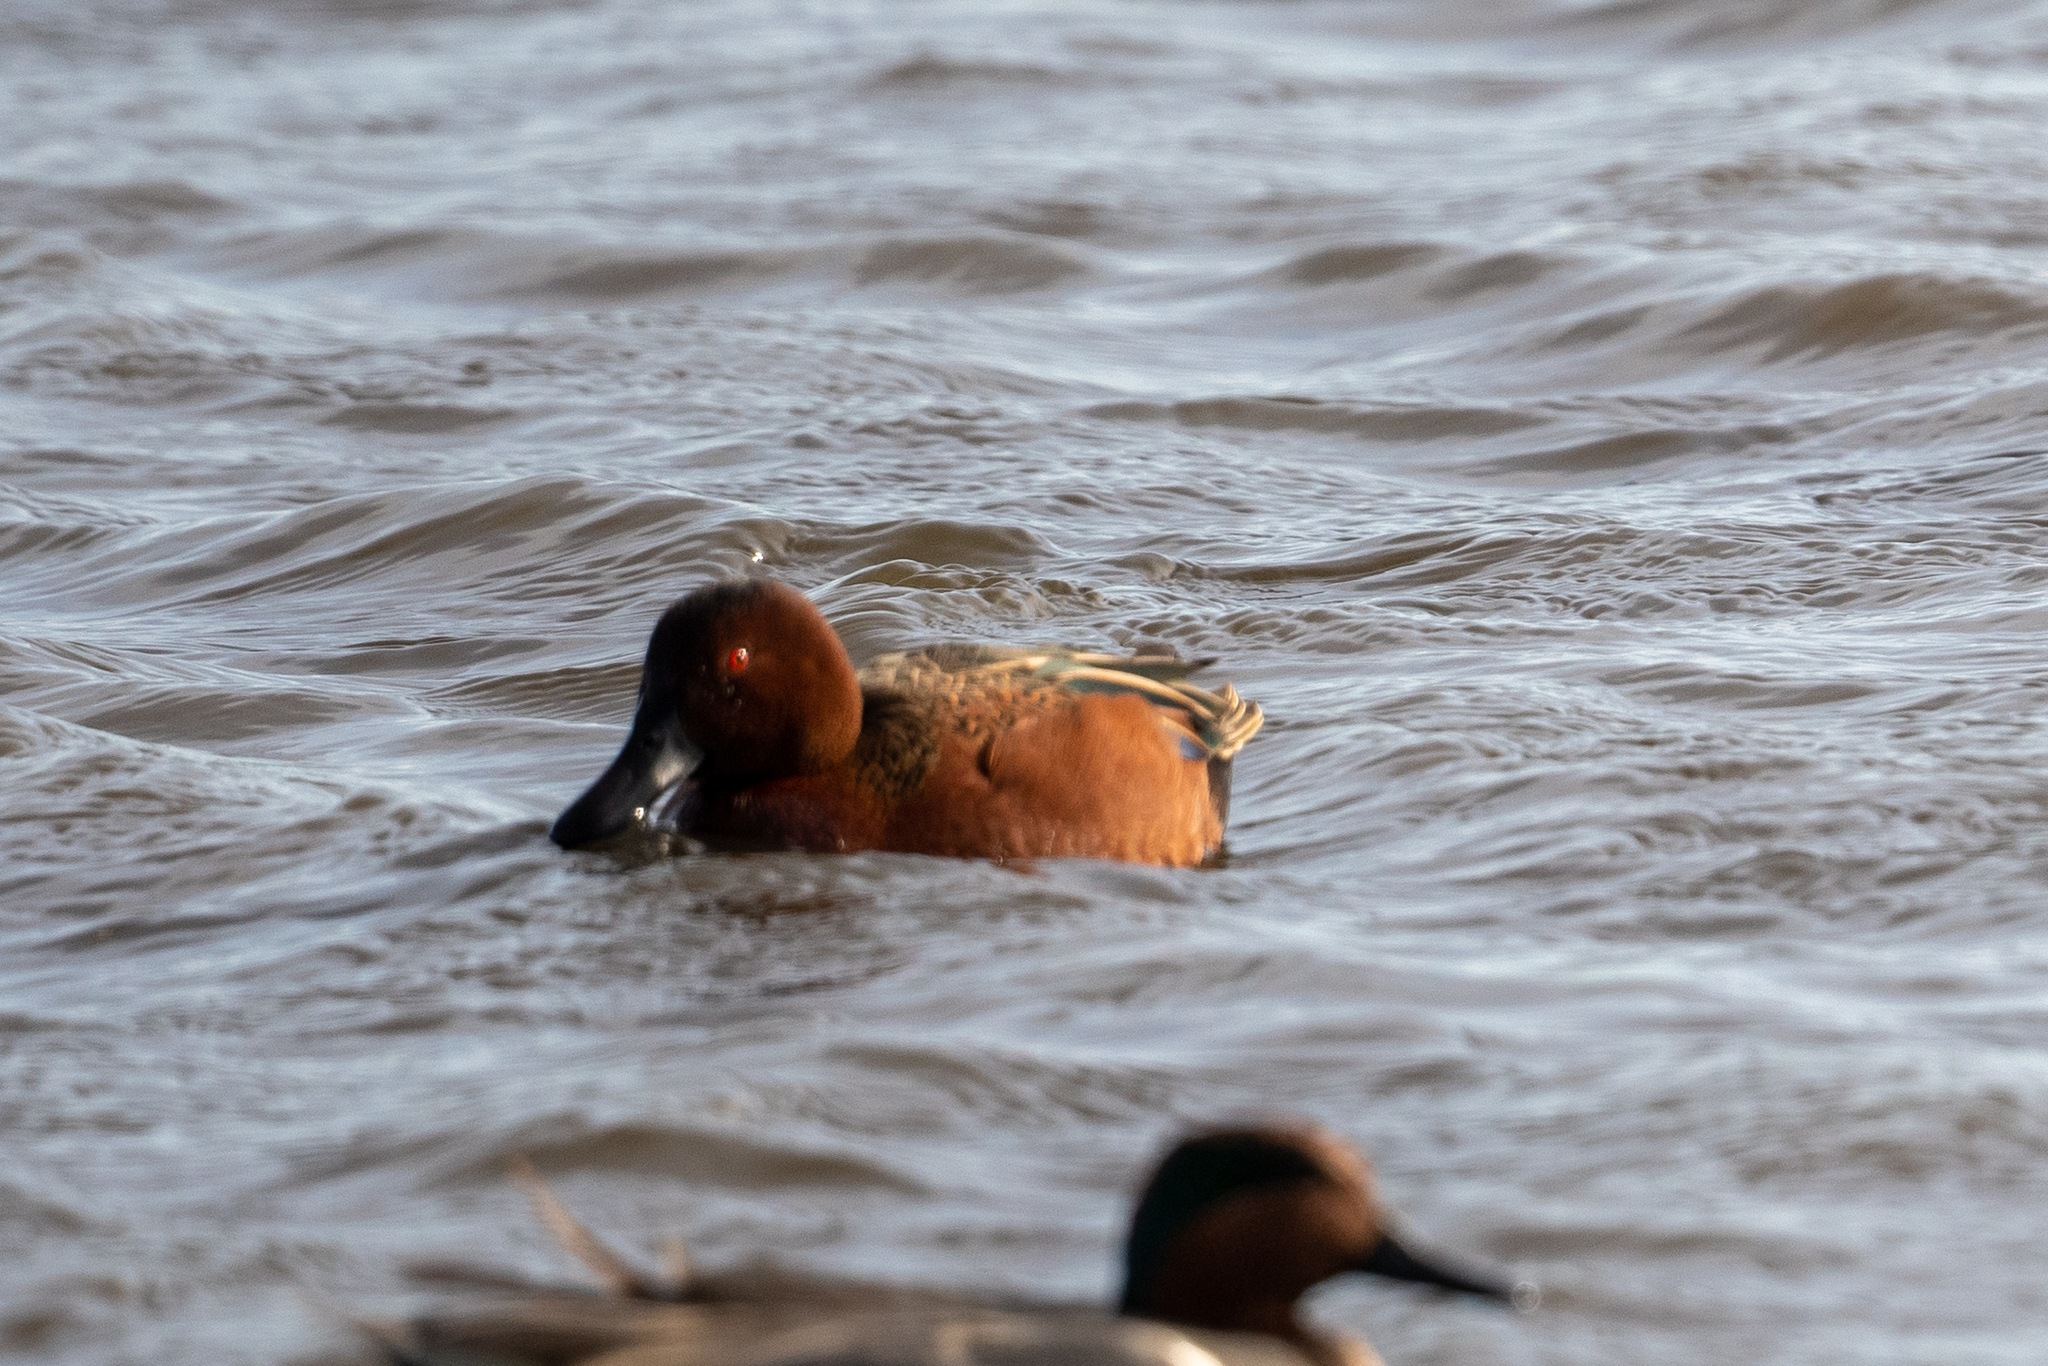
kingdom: Animalia
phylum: Chordata
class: Aves
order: Anseriformes
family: Anatidae
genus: Spatula
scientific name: Spatula cyanoptera
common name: Cinnamon teal
